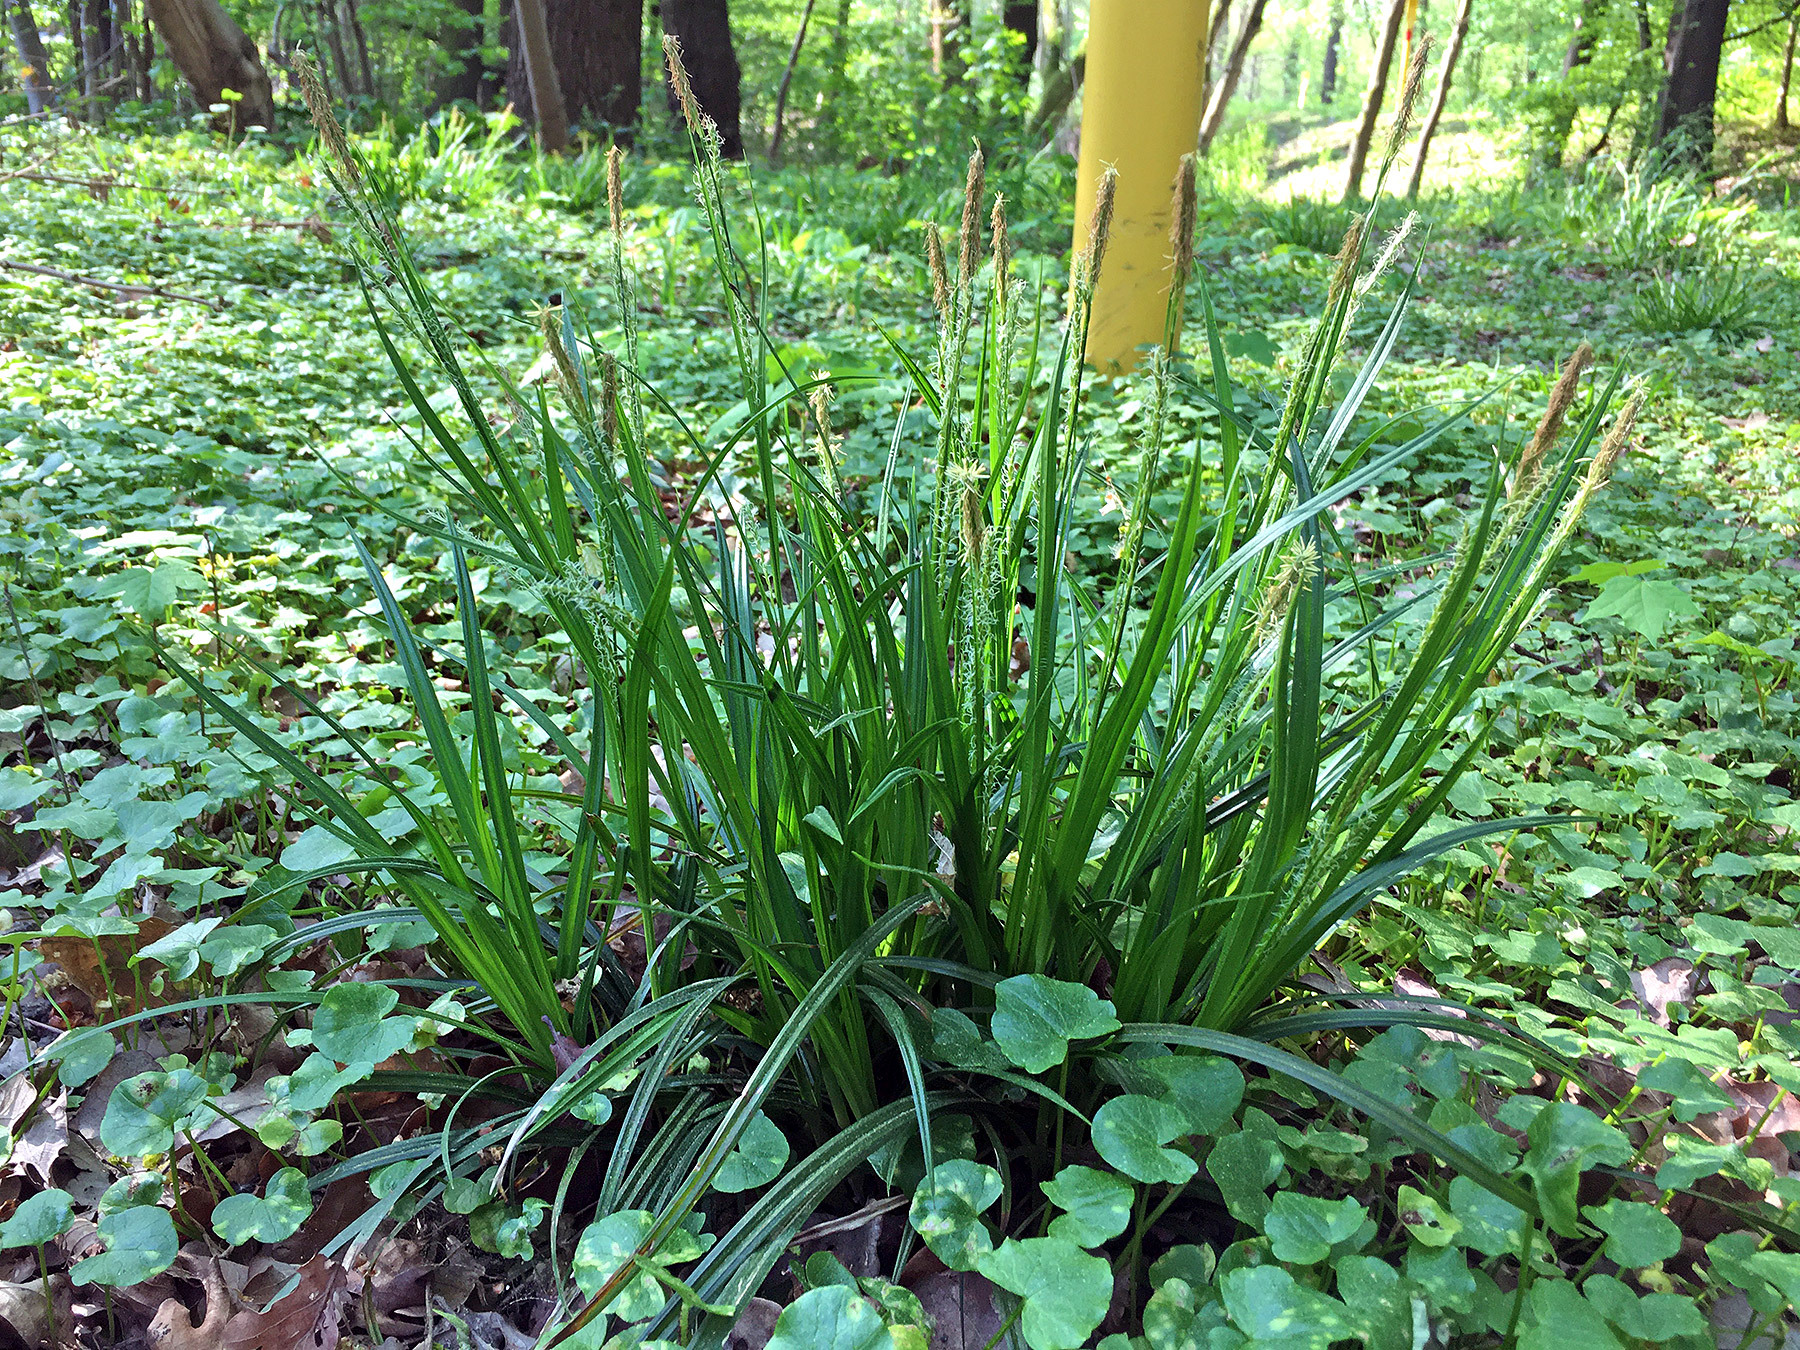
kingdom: Plantae
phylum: Tracheophyta
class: Liliopsida
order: Poales
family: Cyperaceae
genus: Carex
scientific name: Carex sylvatica
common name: Wood-sedge
